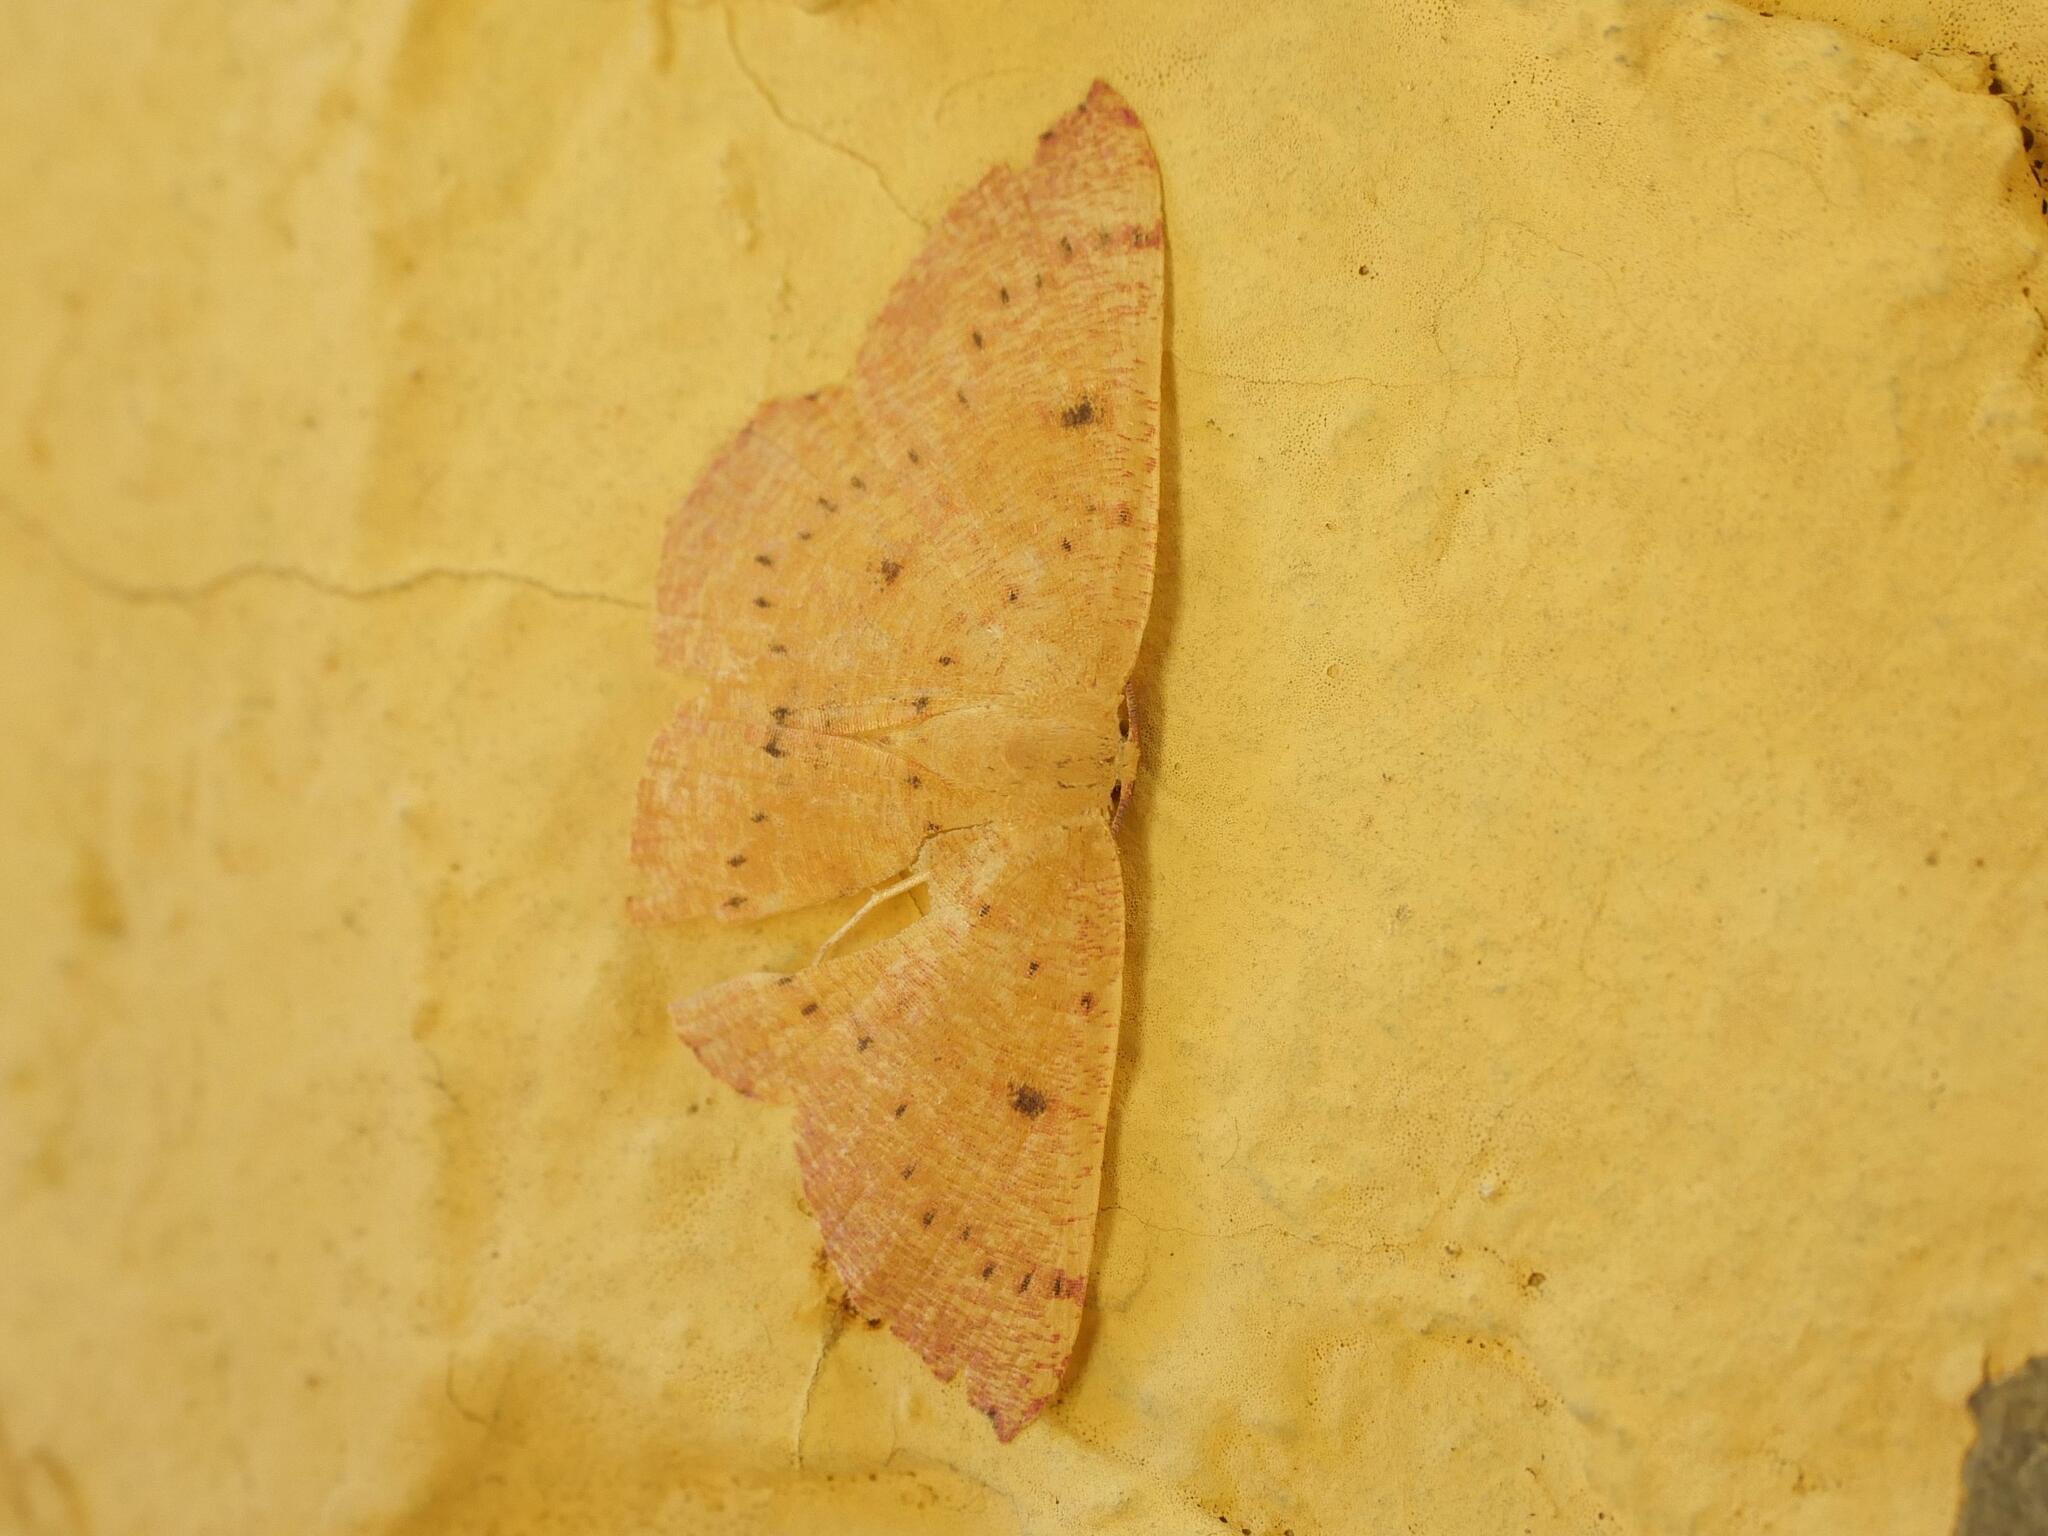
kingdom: Animalia
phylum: Arthropoda
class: Insecta
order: Lepidoptera
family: Geometridae
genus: Cyclophora
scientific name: Cyclophora puppillaria
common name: Blair's mocha
